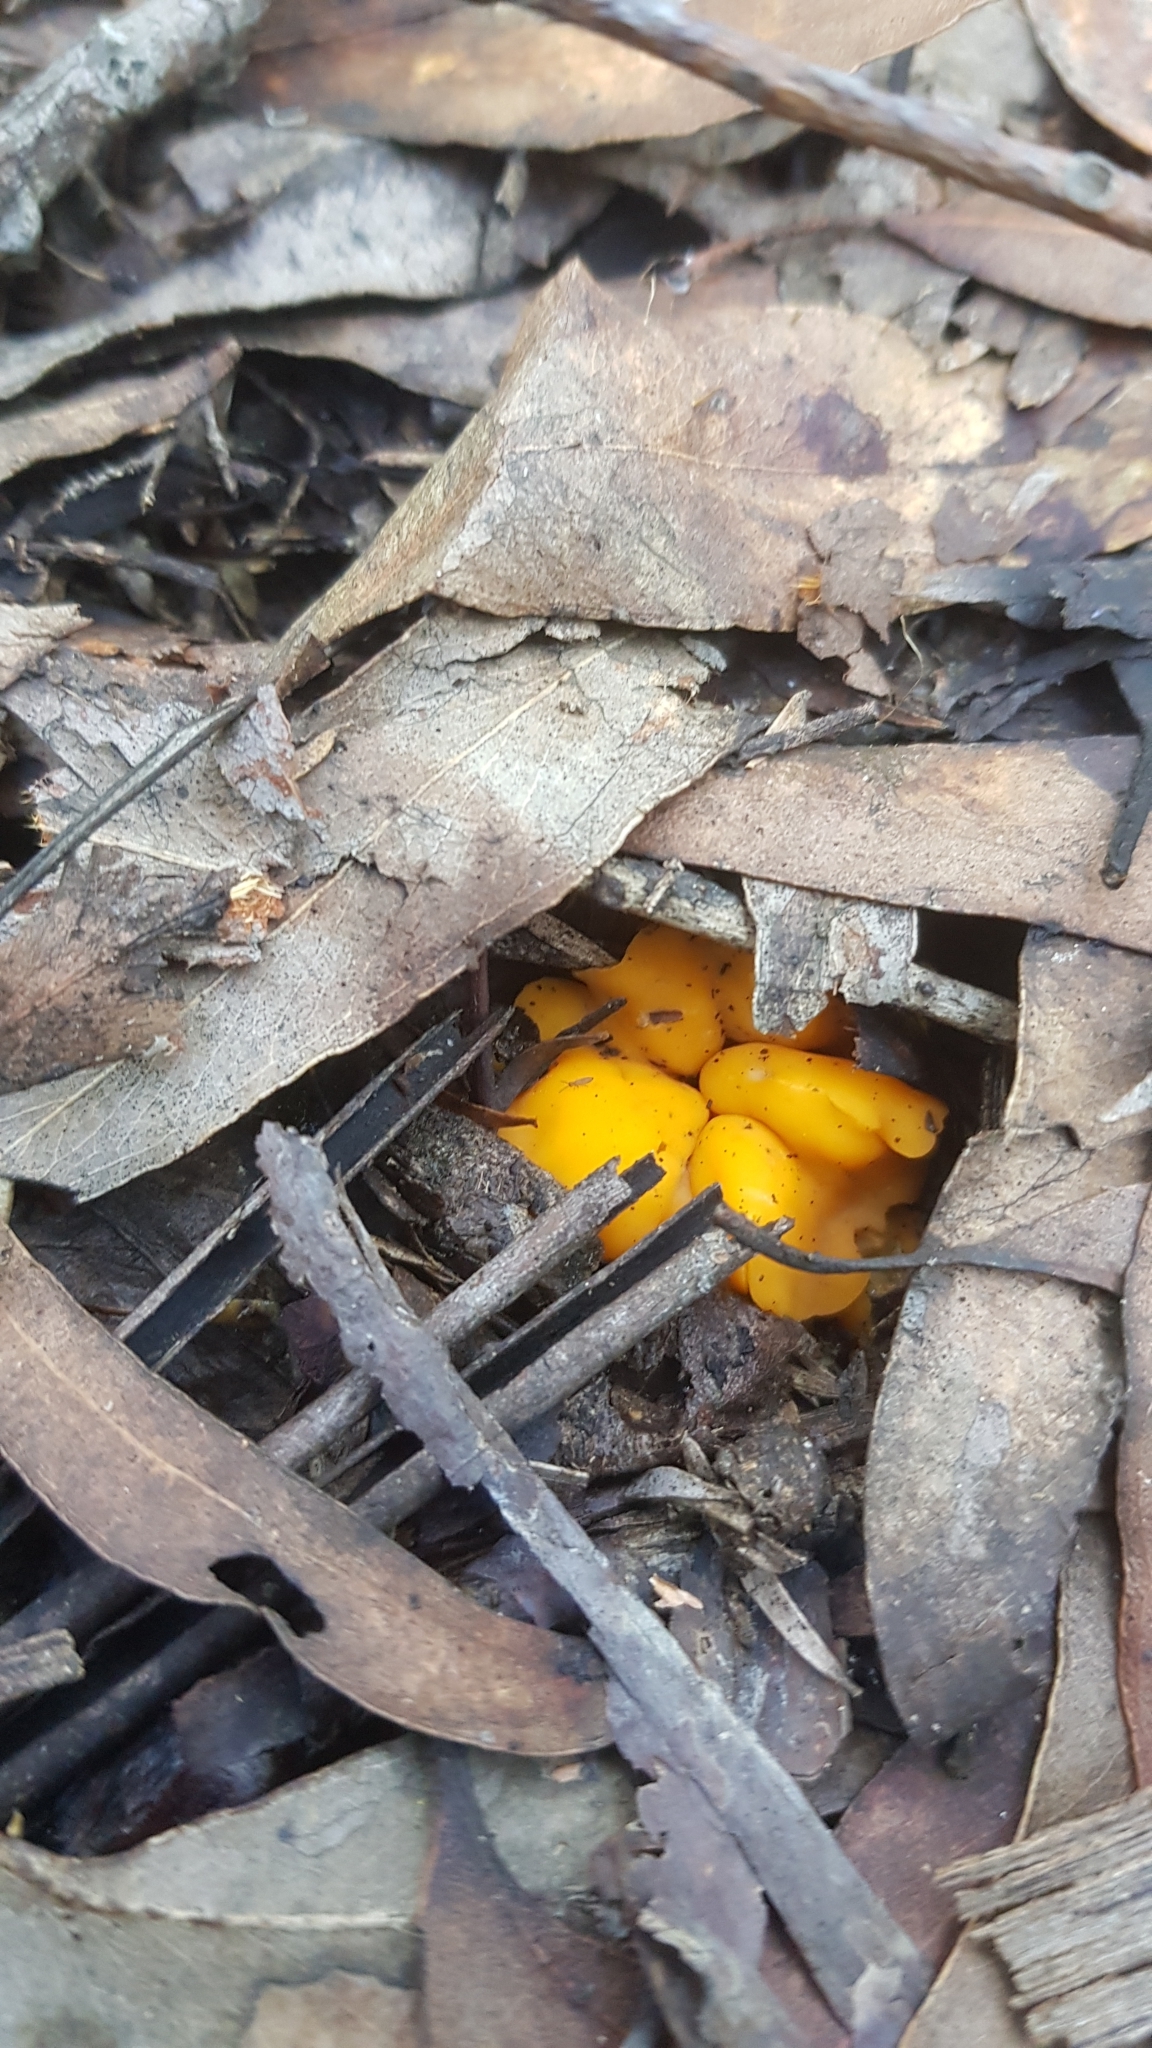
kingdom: Fungi
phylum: Ascomycota
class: Leotiomycetes
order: Helotiales
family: Helotiaceae
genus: Phaeohelotium
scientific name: Phaeohelotium baileyanum
